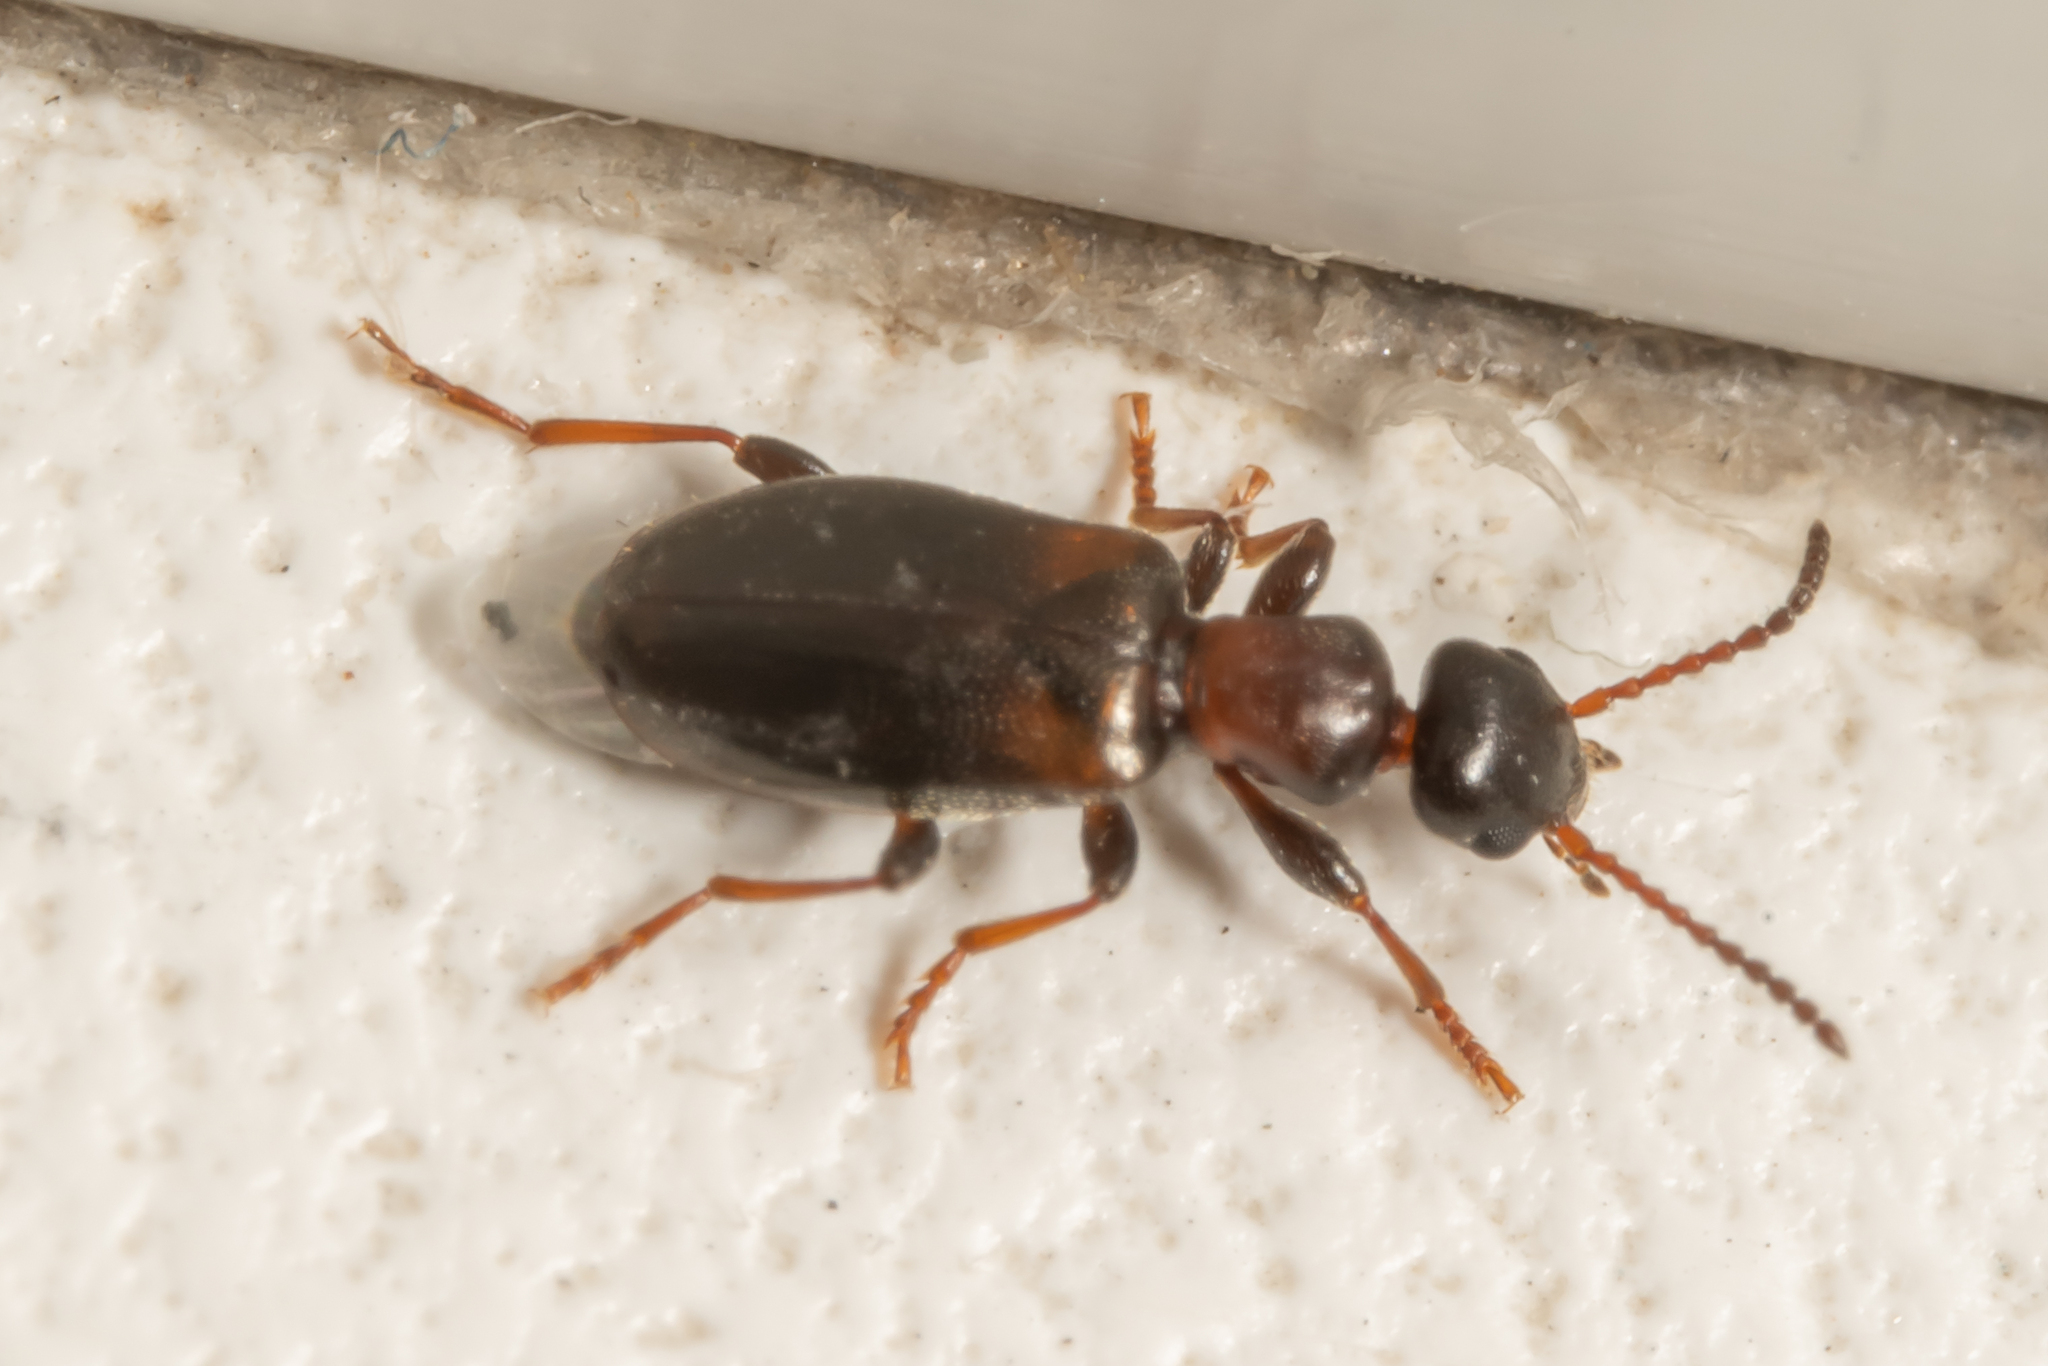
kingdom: Animalia
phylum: Arthropoda
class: Insecta
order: Coleoptera
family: Anthicidae
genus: Omonadus
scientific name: Omonadus floralis
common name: Narrownecked grain beetle
